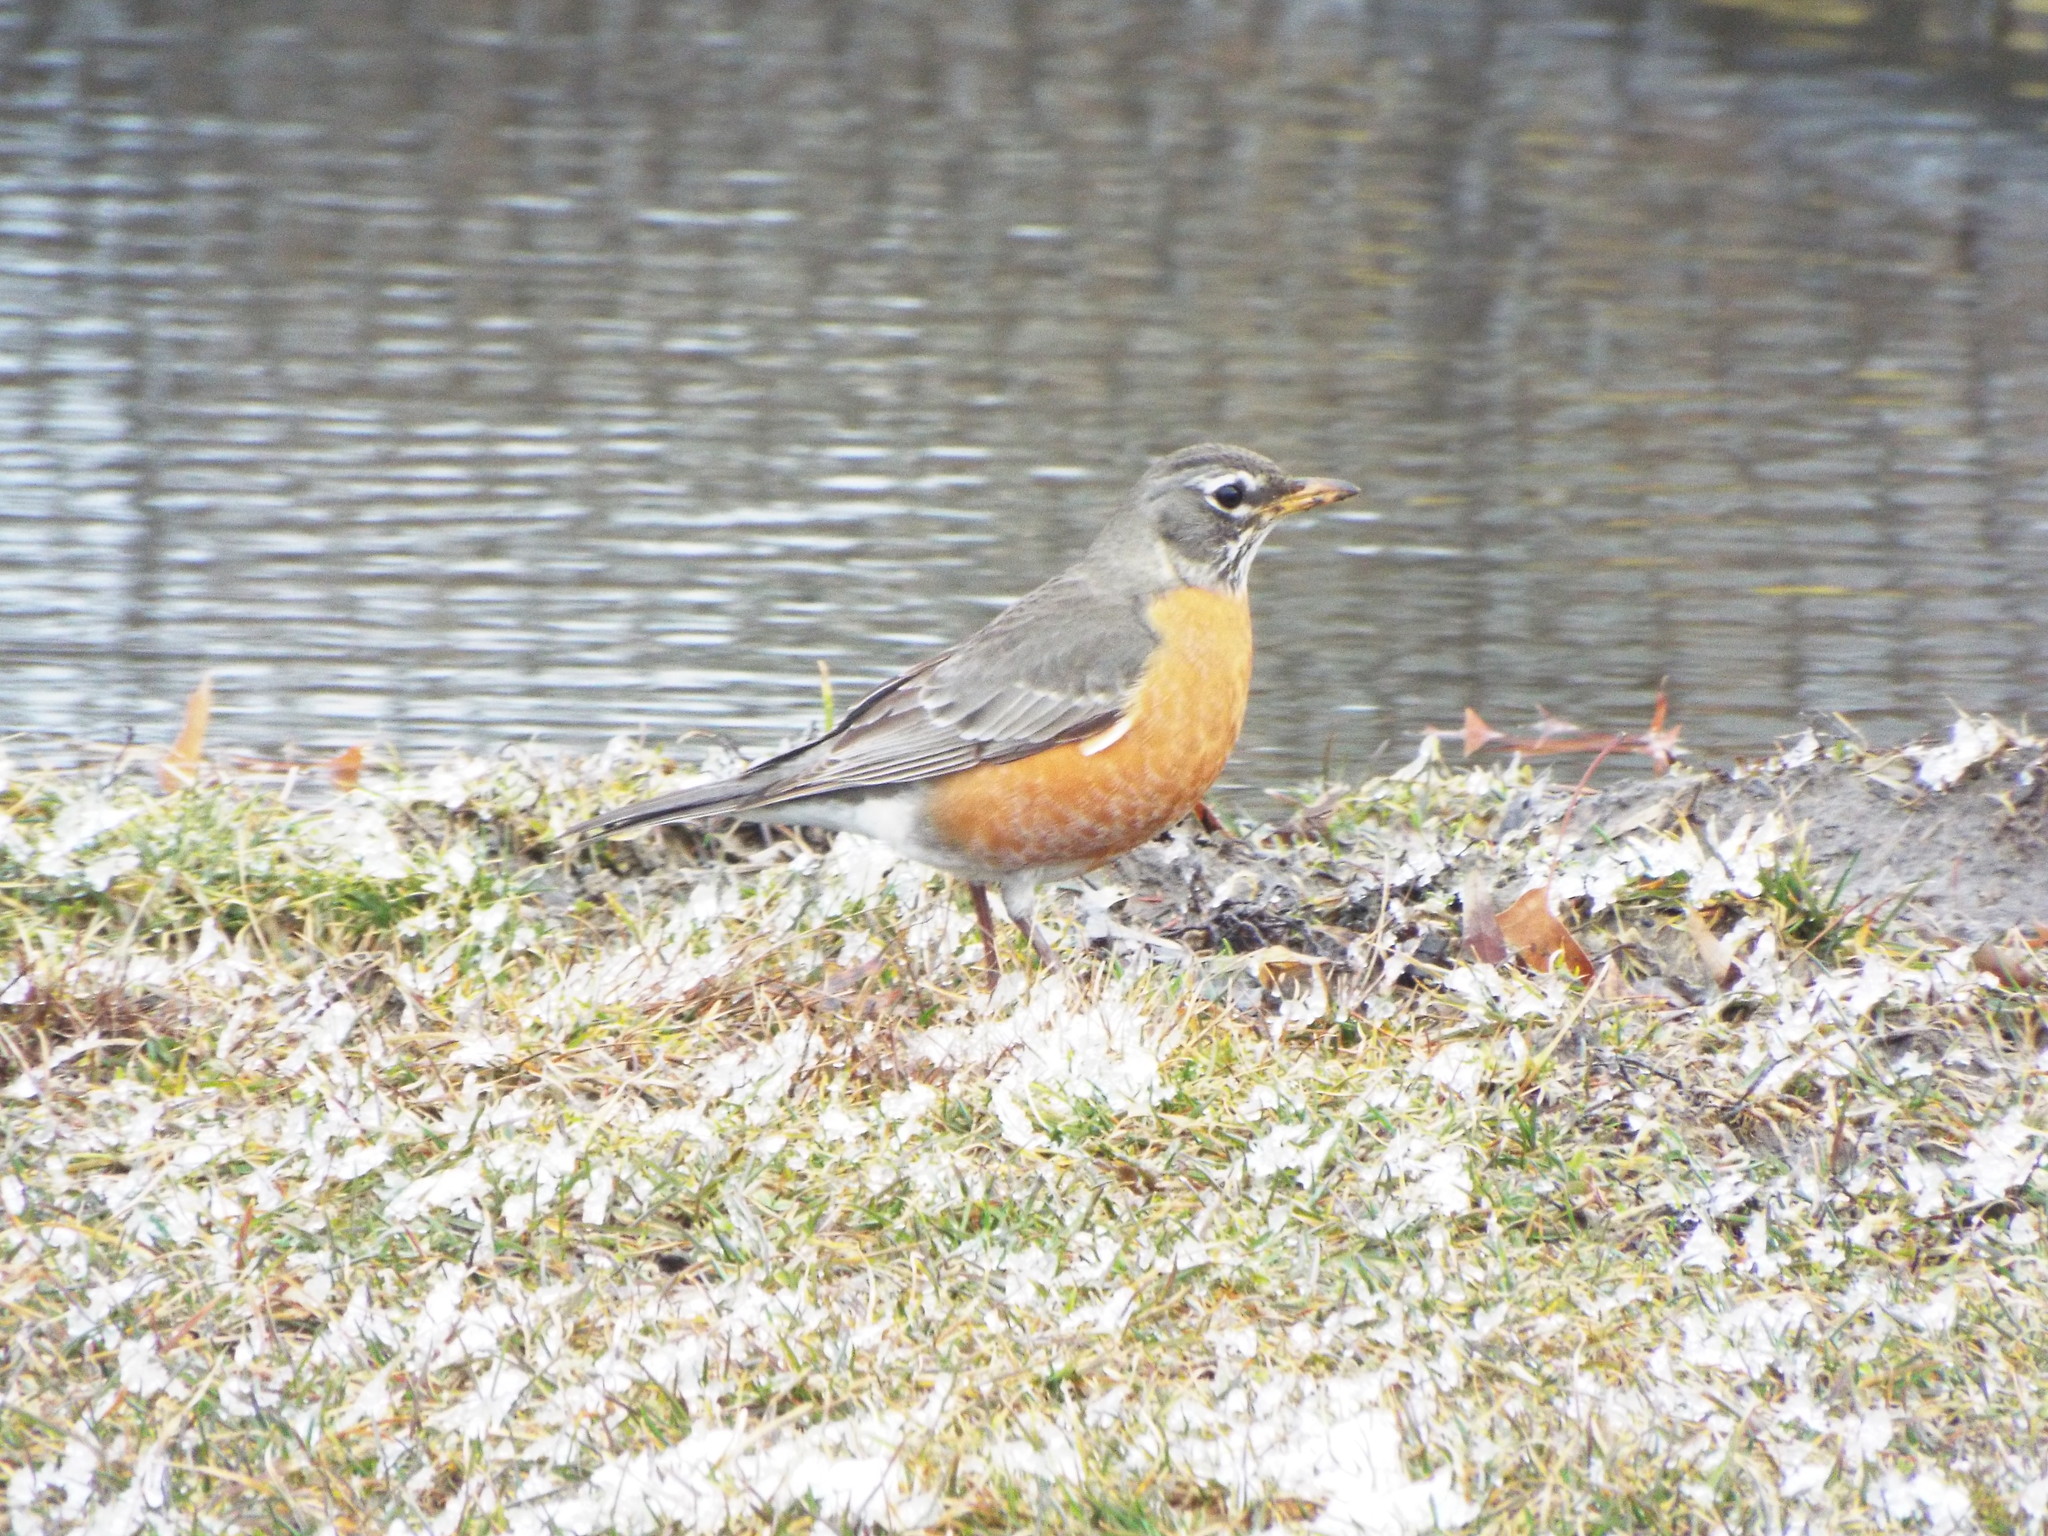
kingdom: Animalia
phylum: Chordata
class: Aves
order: Passeriformes
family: Turdidae
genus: Turdus
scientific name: Turdus migratorius
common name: American robin
